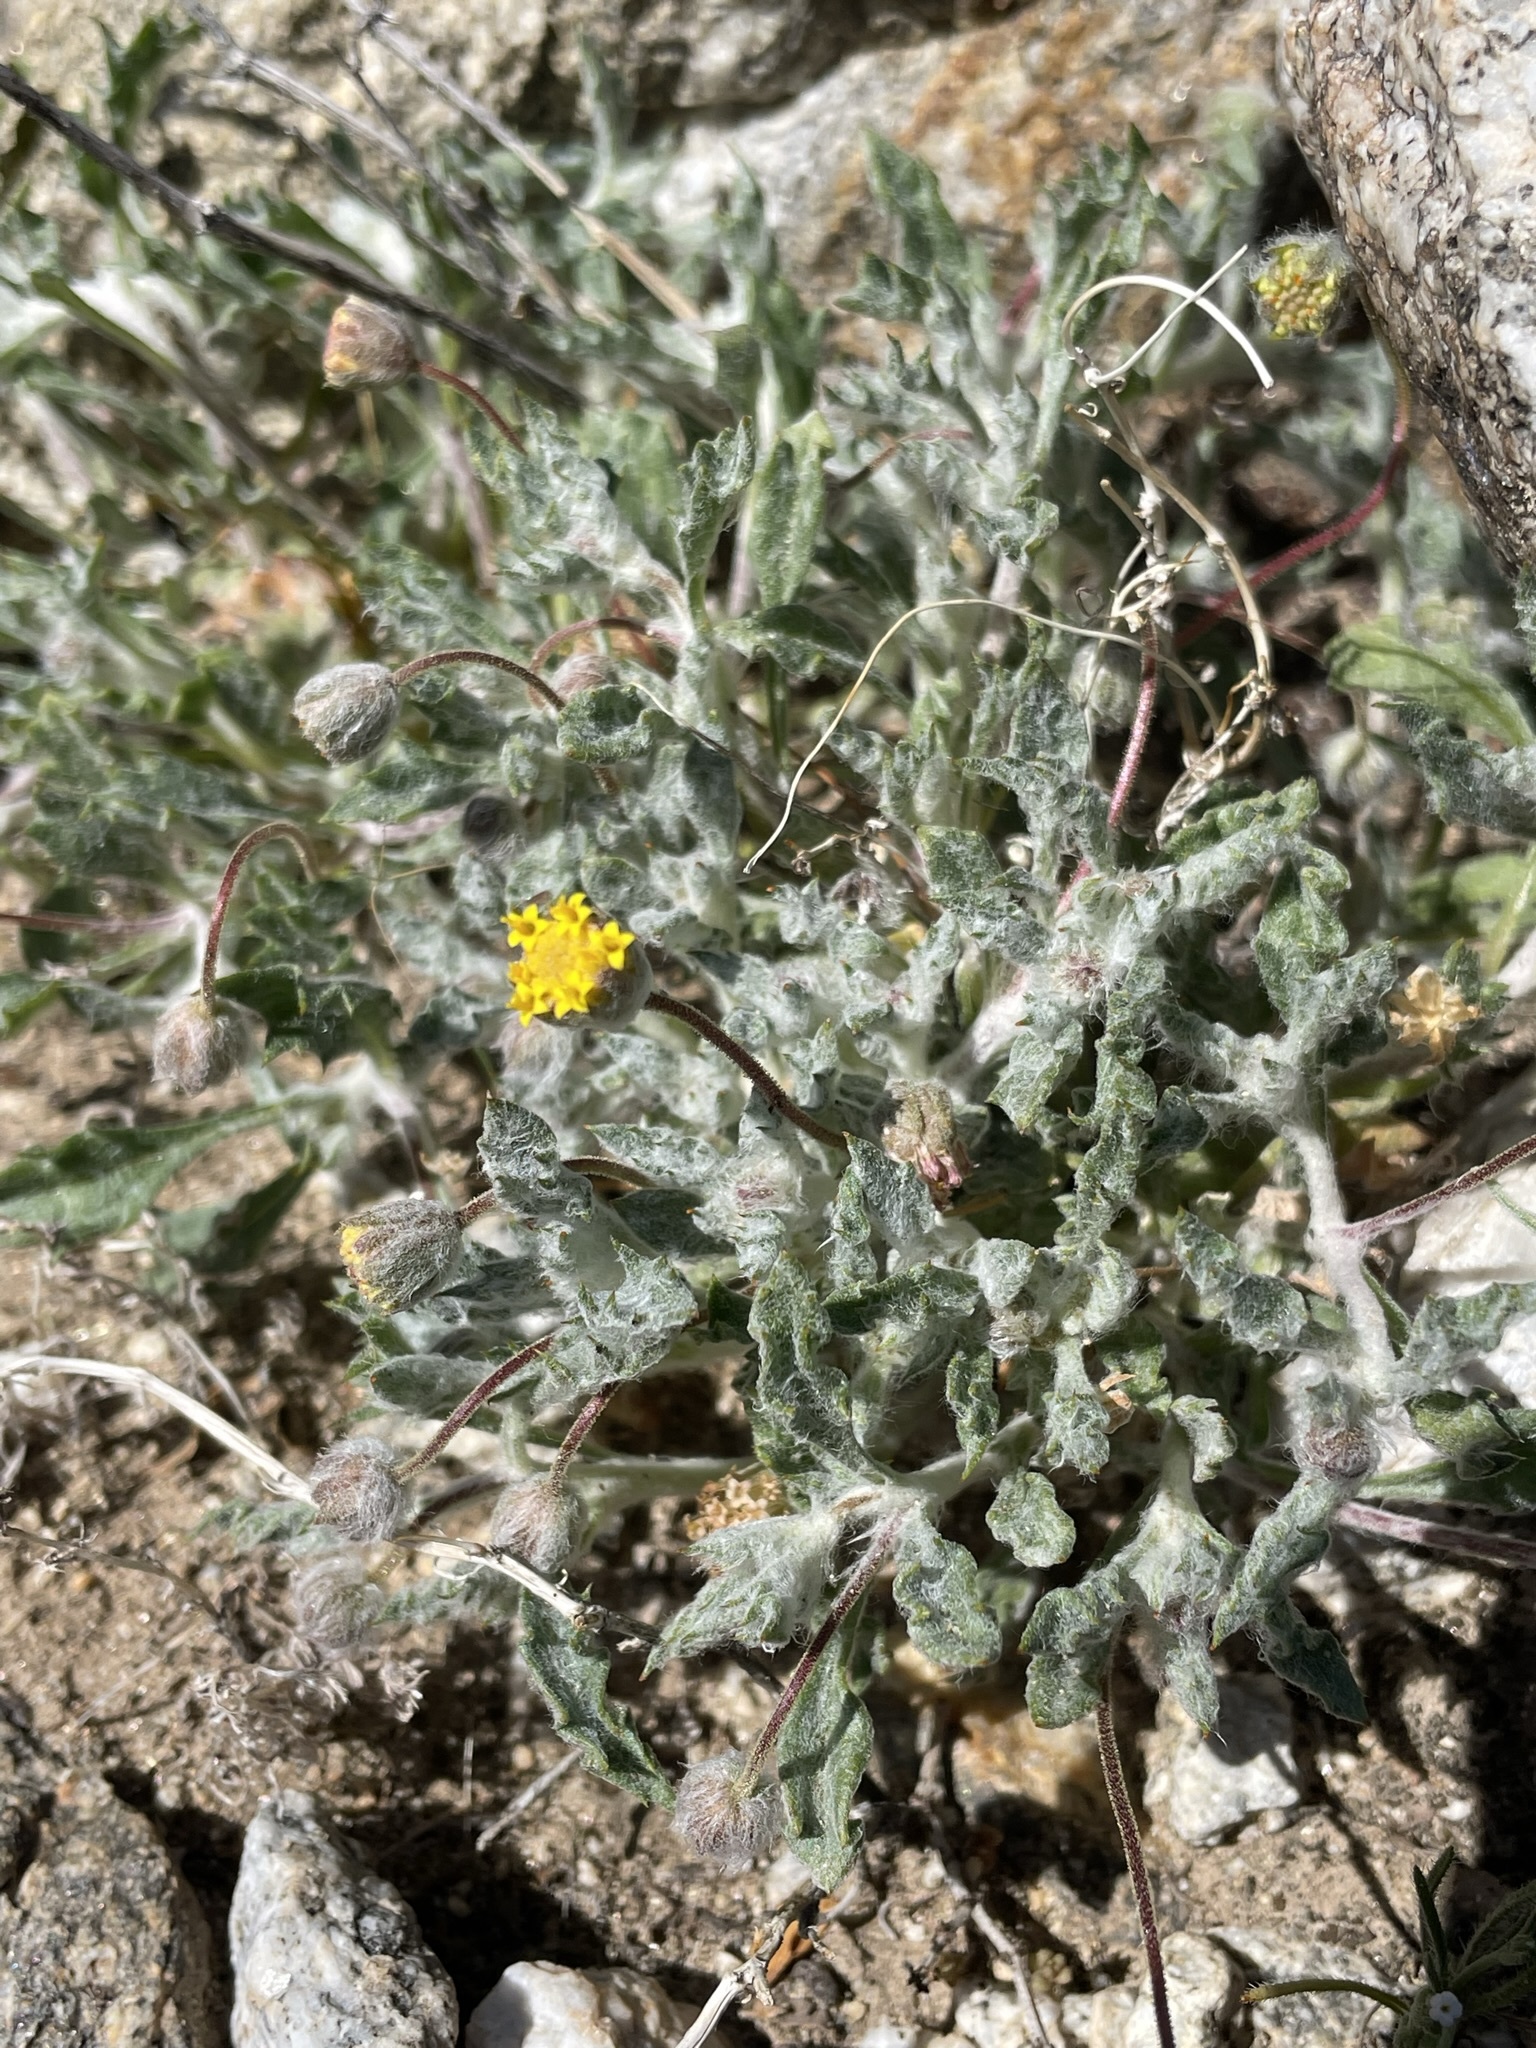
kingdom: Plantae
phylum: Tracheophyta
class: Magnoliopsida
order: Asterales
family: Asteraceae
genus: Trichoptilium
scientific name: Trichoptilium incisum
